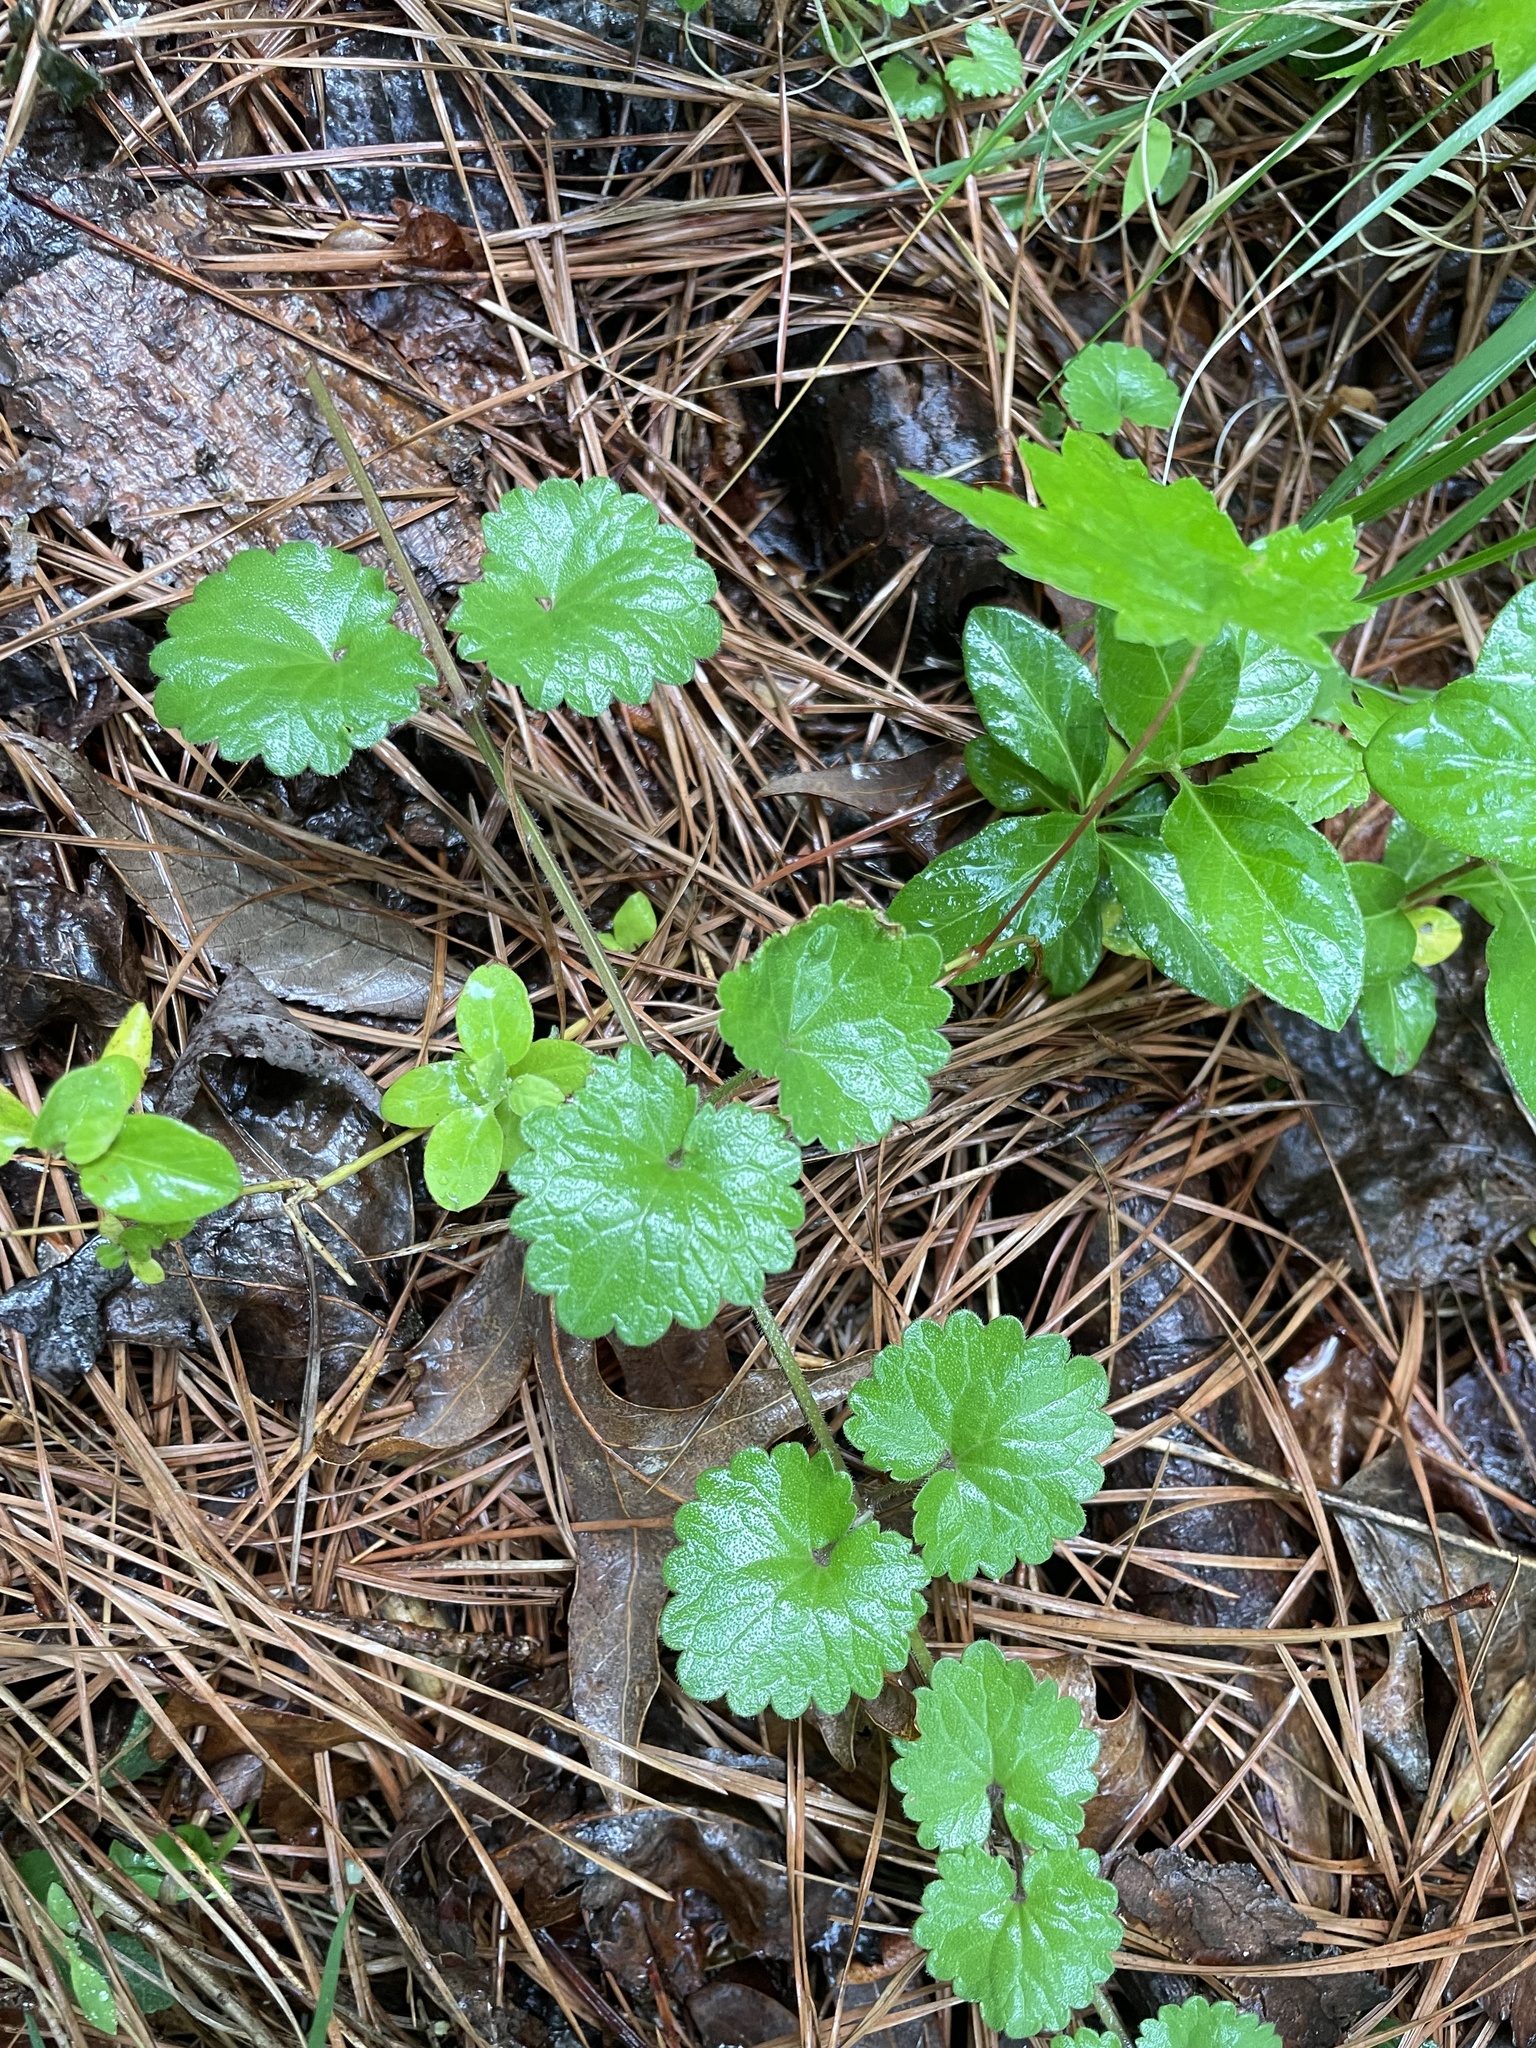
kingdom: Plantae
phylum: Tracheophyta
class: Magnoliopsida
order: Lamiales
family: Lamiaceae
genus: Glechoma
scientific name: Glechoma hederacea
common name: Ground ivy
